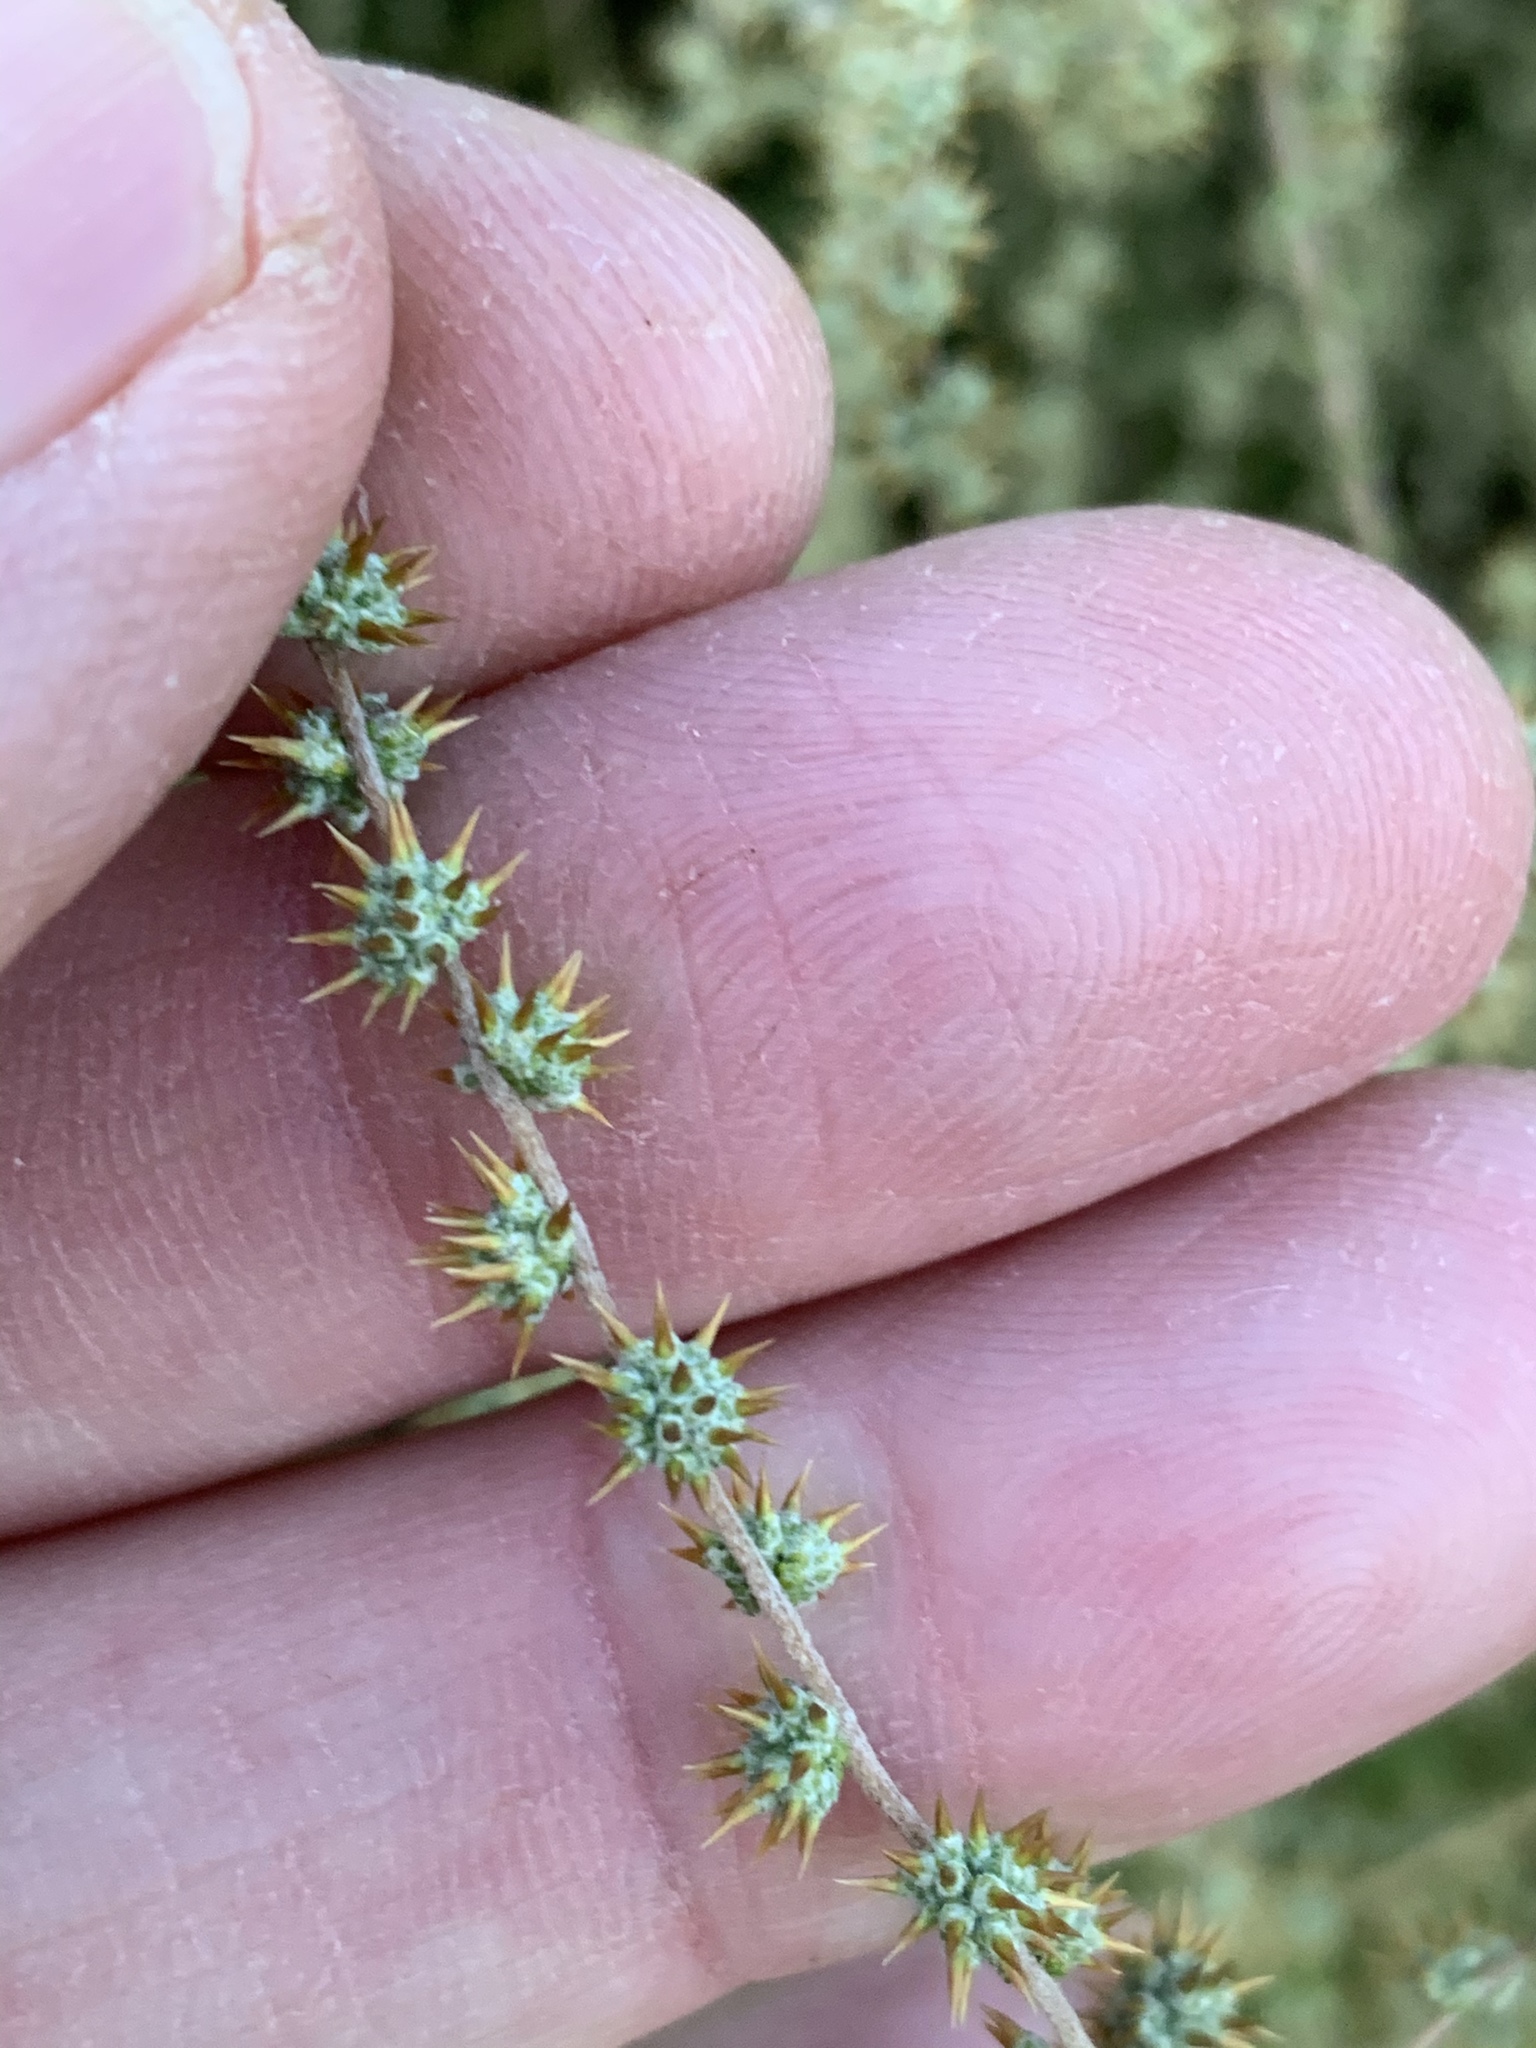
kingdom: Plantae
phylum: Tracheophyta
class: Magnoliopsida
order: Asterales
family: Asteraceae
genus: Seriphium
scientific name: Seriphium plumosum
